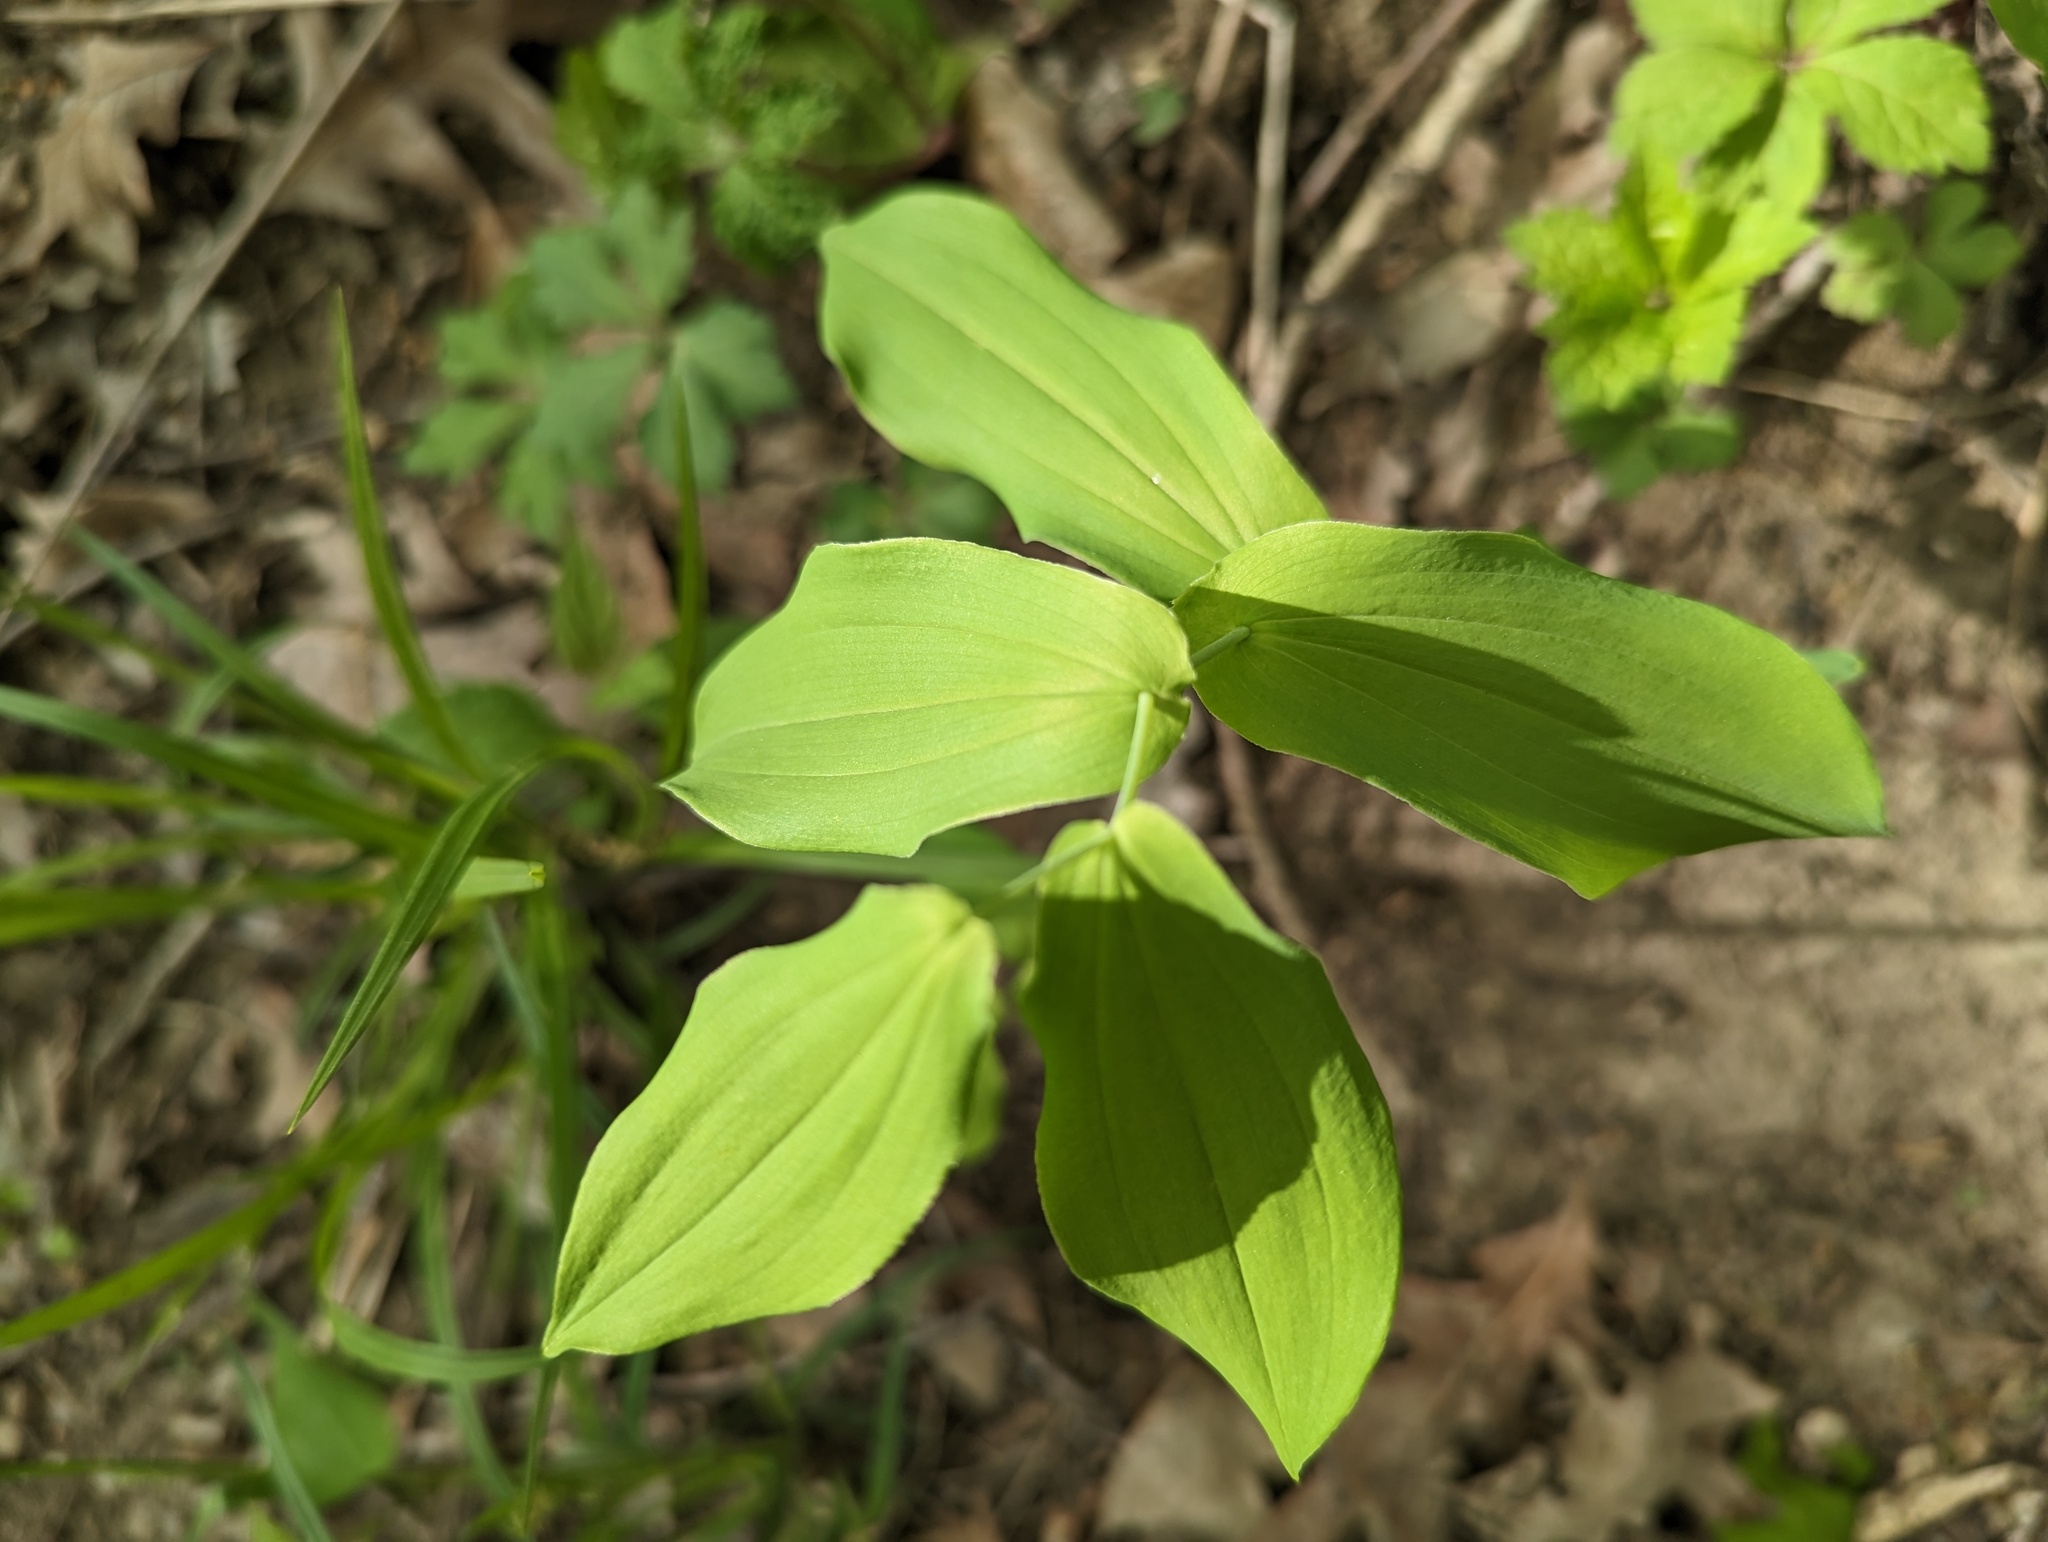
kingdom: Plantae
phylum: Tracheophyta
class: Liliopsida
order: Liliales
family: Colchicaceae
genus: Uvularia
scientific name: Uvularia grandiflora
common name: Bellwort
